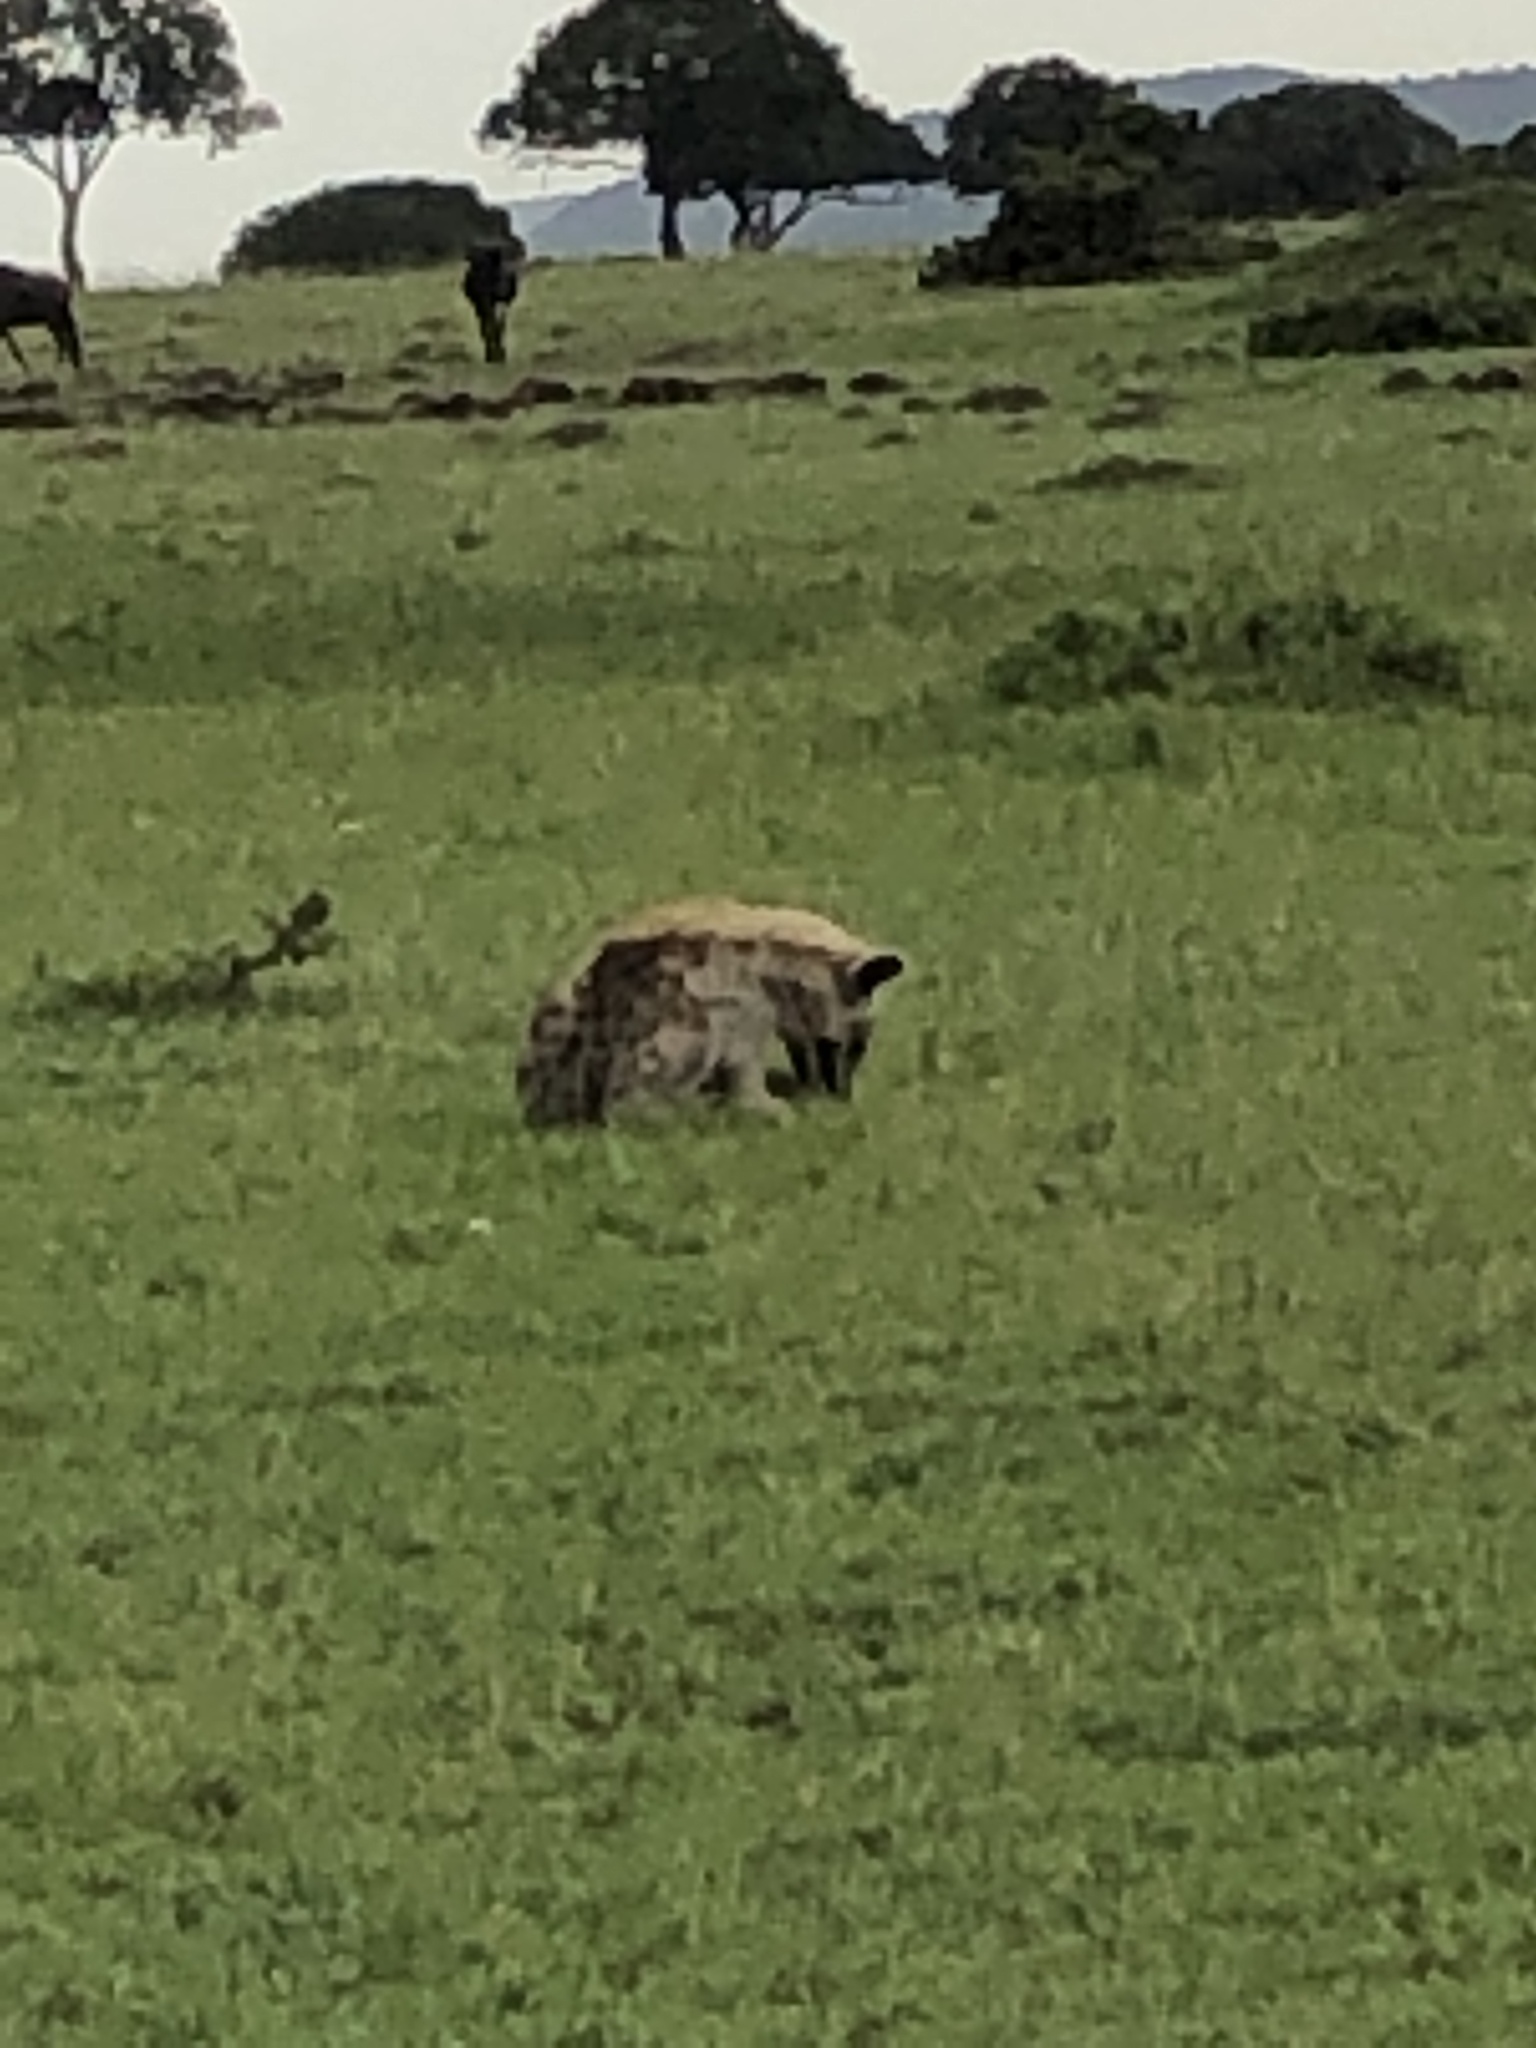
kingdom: Animalia
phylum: Chordata
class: Mammalia
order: Carnivora
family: Hyaenidae
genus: Crocuta
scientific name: Crocuta crocuta
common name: Spotted hyaena
